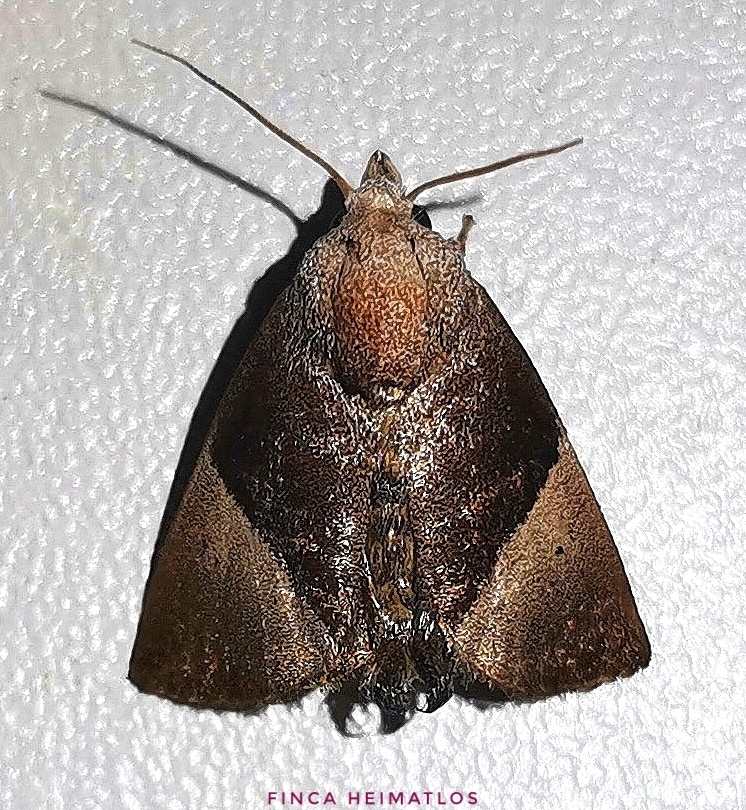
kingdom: Animalia
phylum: Arthropoda
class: Insecta
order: Lepidoptera
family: Limacodidae
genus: Dichromapteryx
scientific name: Dichromapteryx didyma
